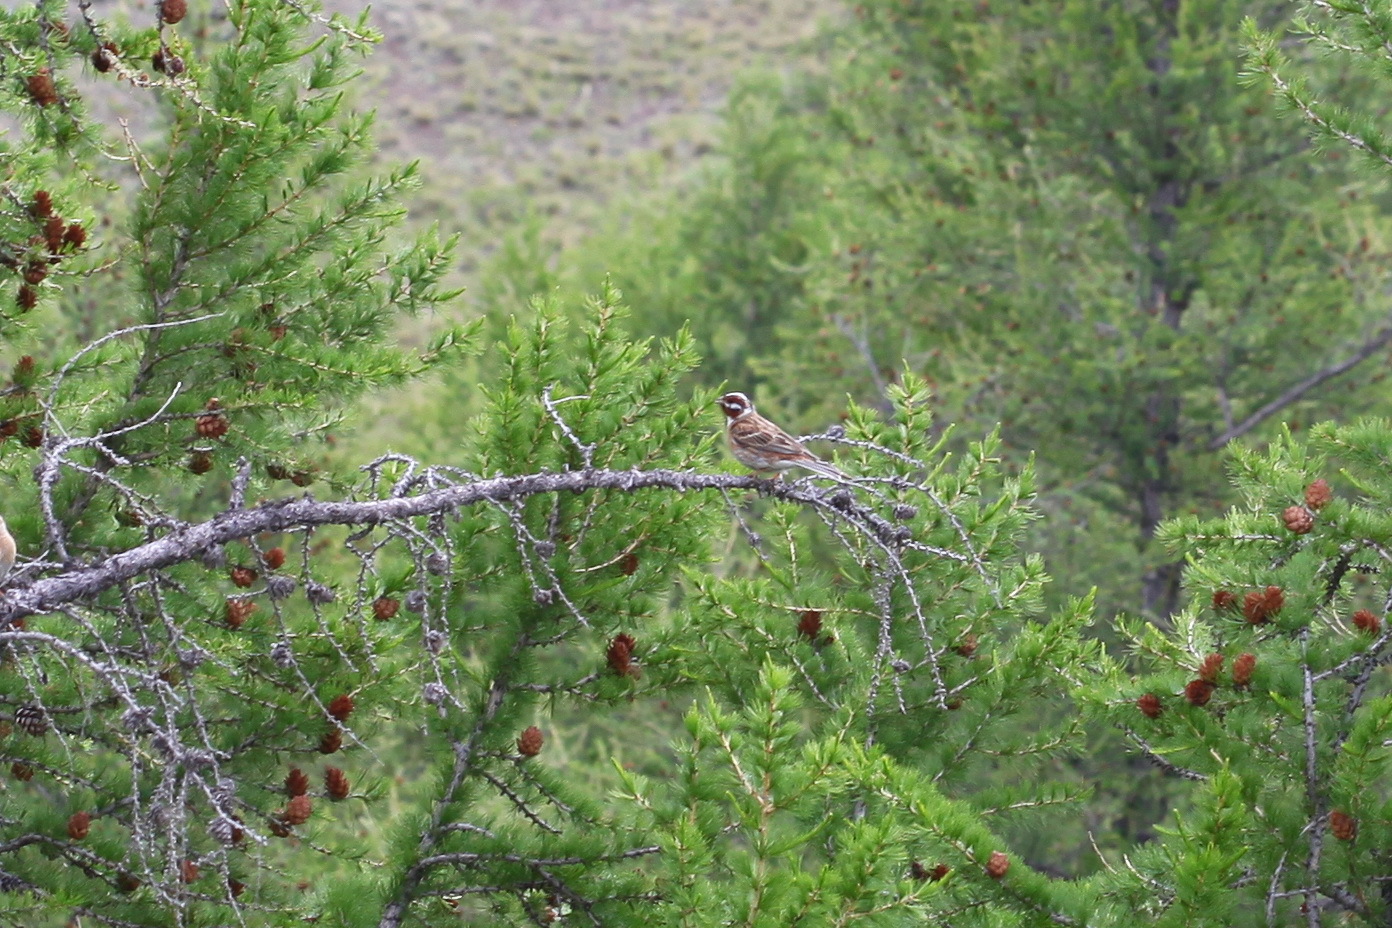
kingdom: Animalia
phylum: Chordata
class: Aves
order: Passeriformes
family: Emberizidae
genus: Emberiza
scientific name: Emberiza leucocephalos
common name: Pine bunting
